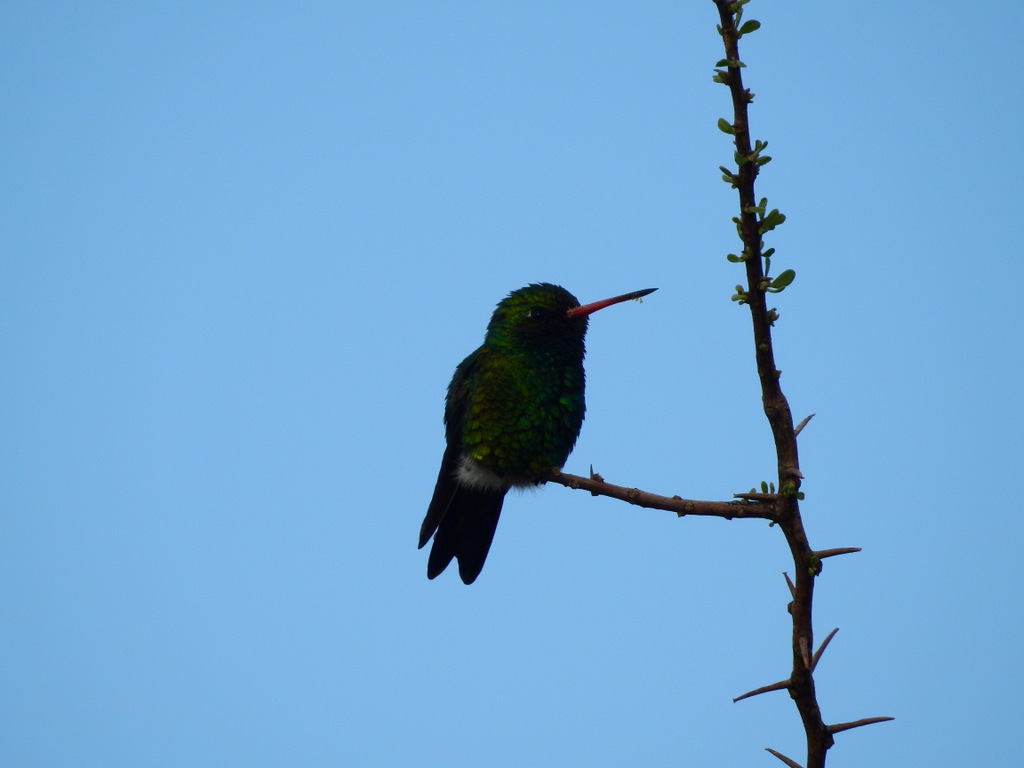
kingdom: Animalia
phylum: Chordata
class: Aves
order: Apodiformes
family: Trochilidae
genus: Chlorostilbon
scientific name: Chlorostilbon lucidus
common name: Glittering-bellied emerald
